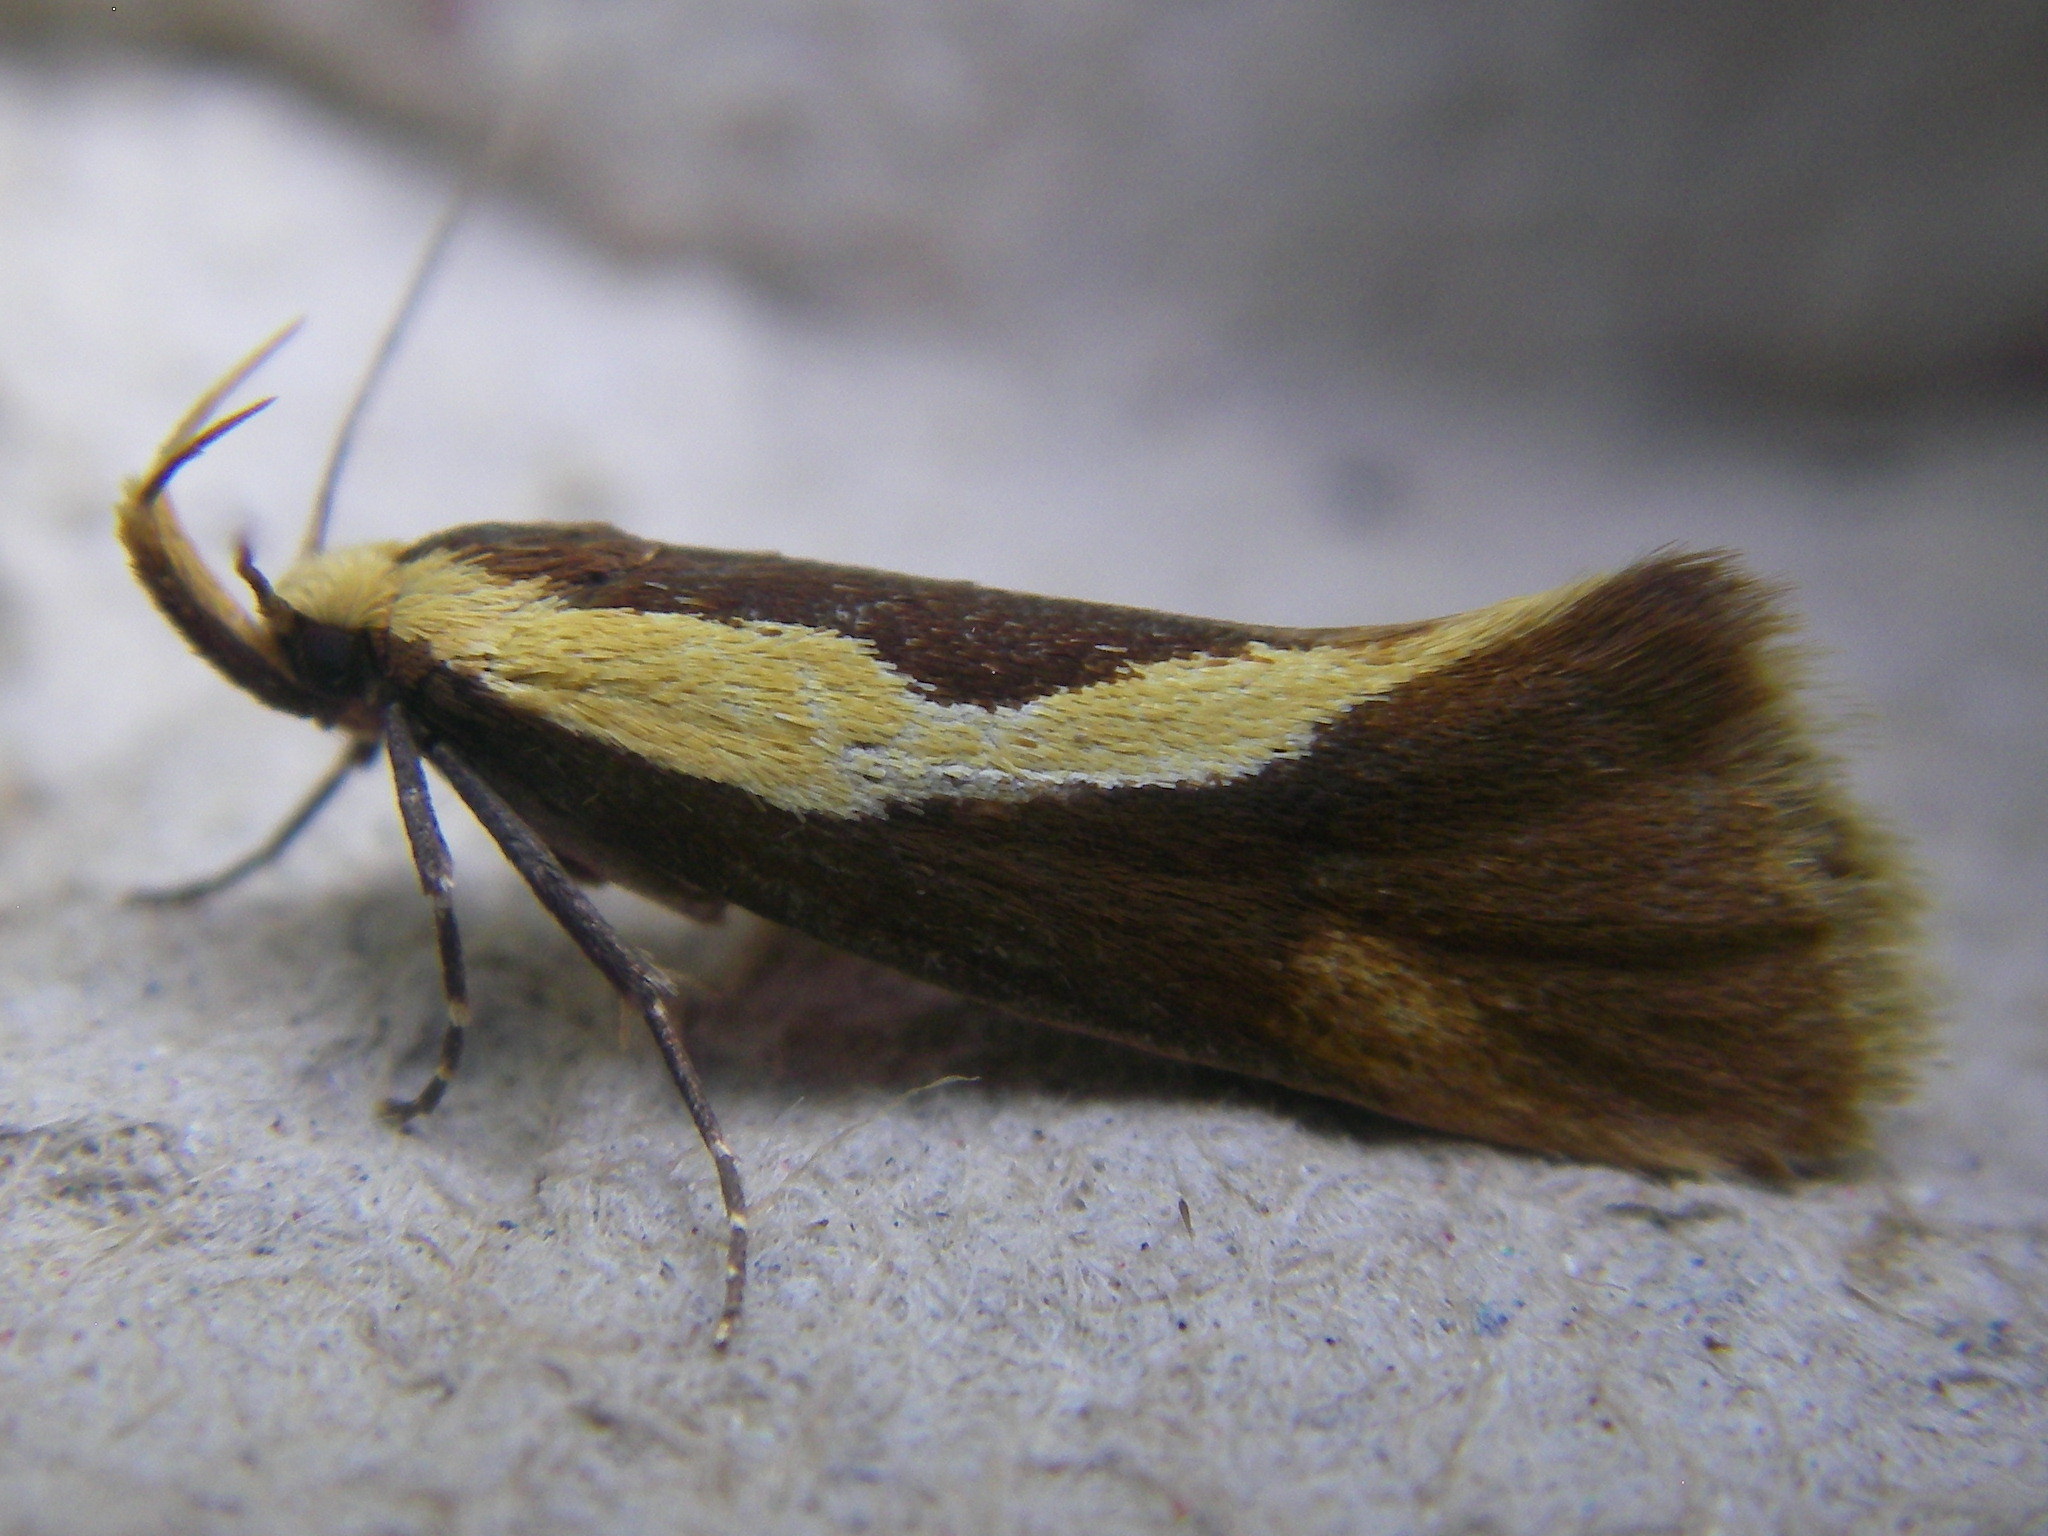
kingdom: Animalia
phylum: Arthropoda
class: Insecta
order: Lepidoptera
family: Oecophoridae
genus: Harpella
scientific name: Harpella forficella
